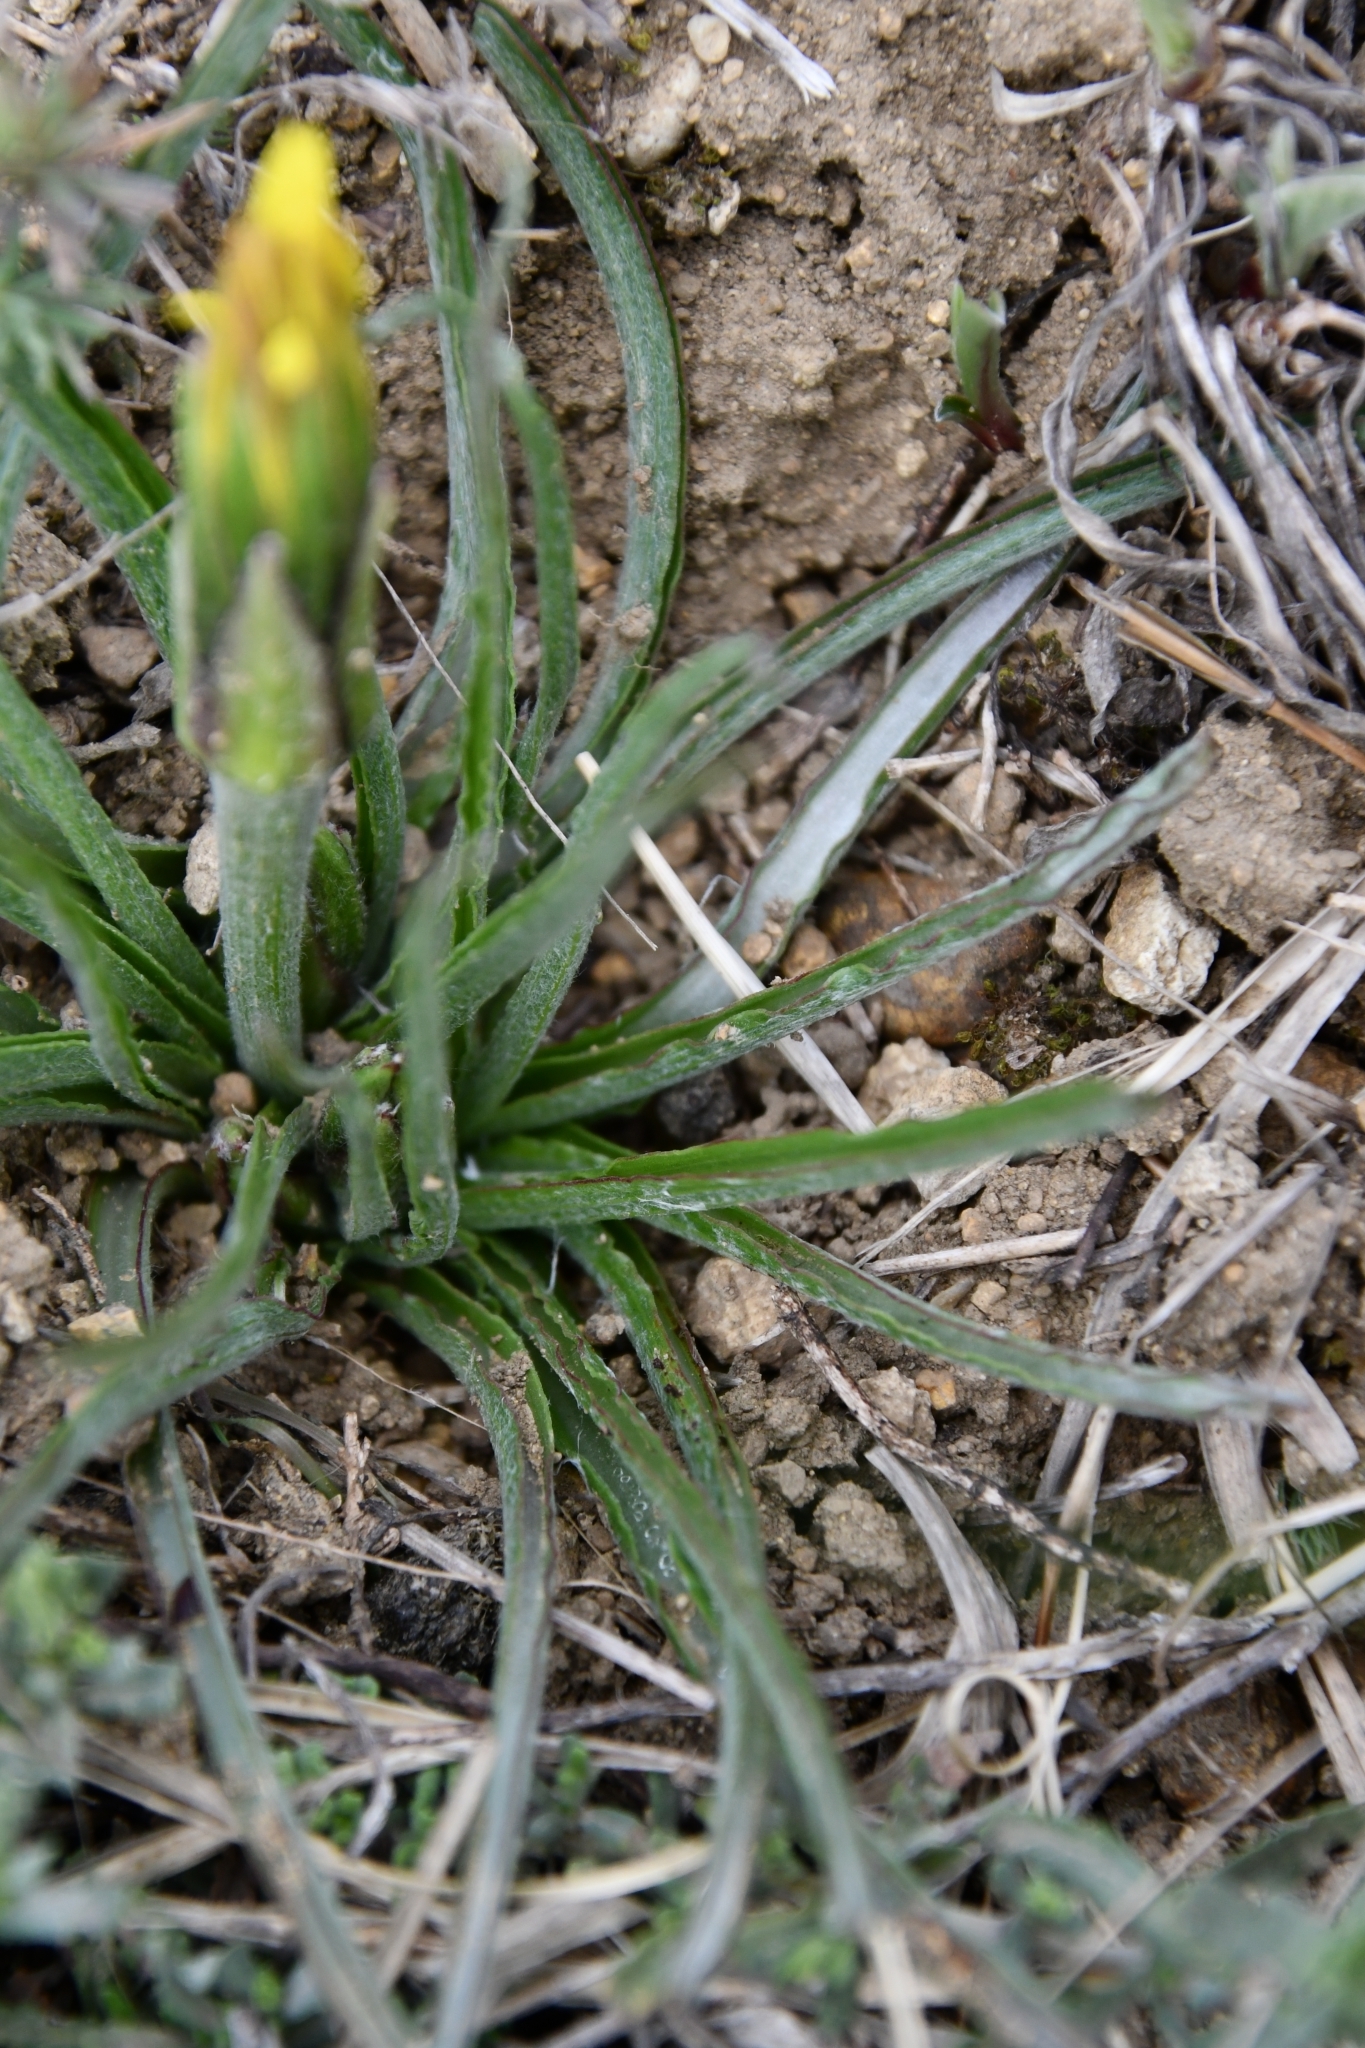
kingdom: Plantae
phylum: Tracheophyta
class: Magnoliopsida
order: Asterales
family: Asteraceae
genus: Candollea
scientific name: Candollea mollis
